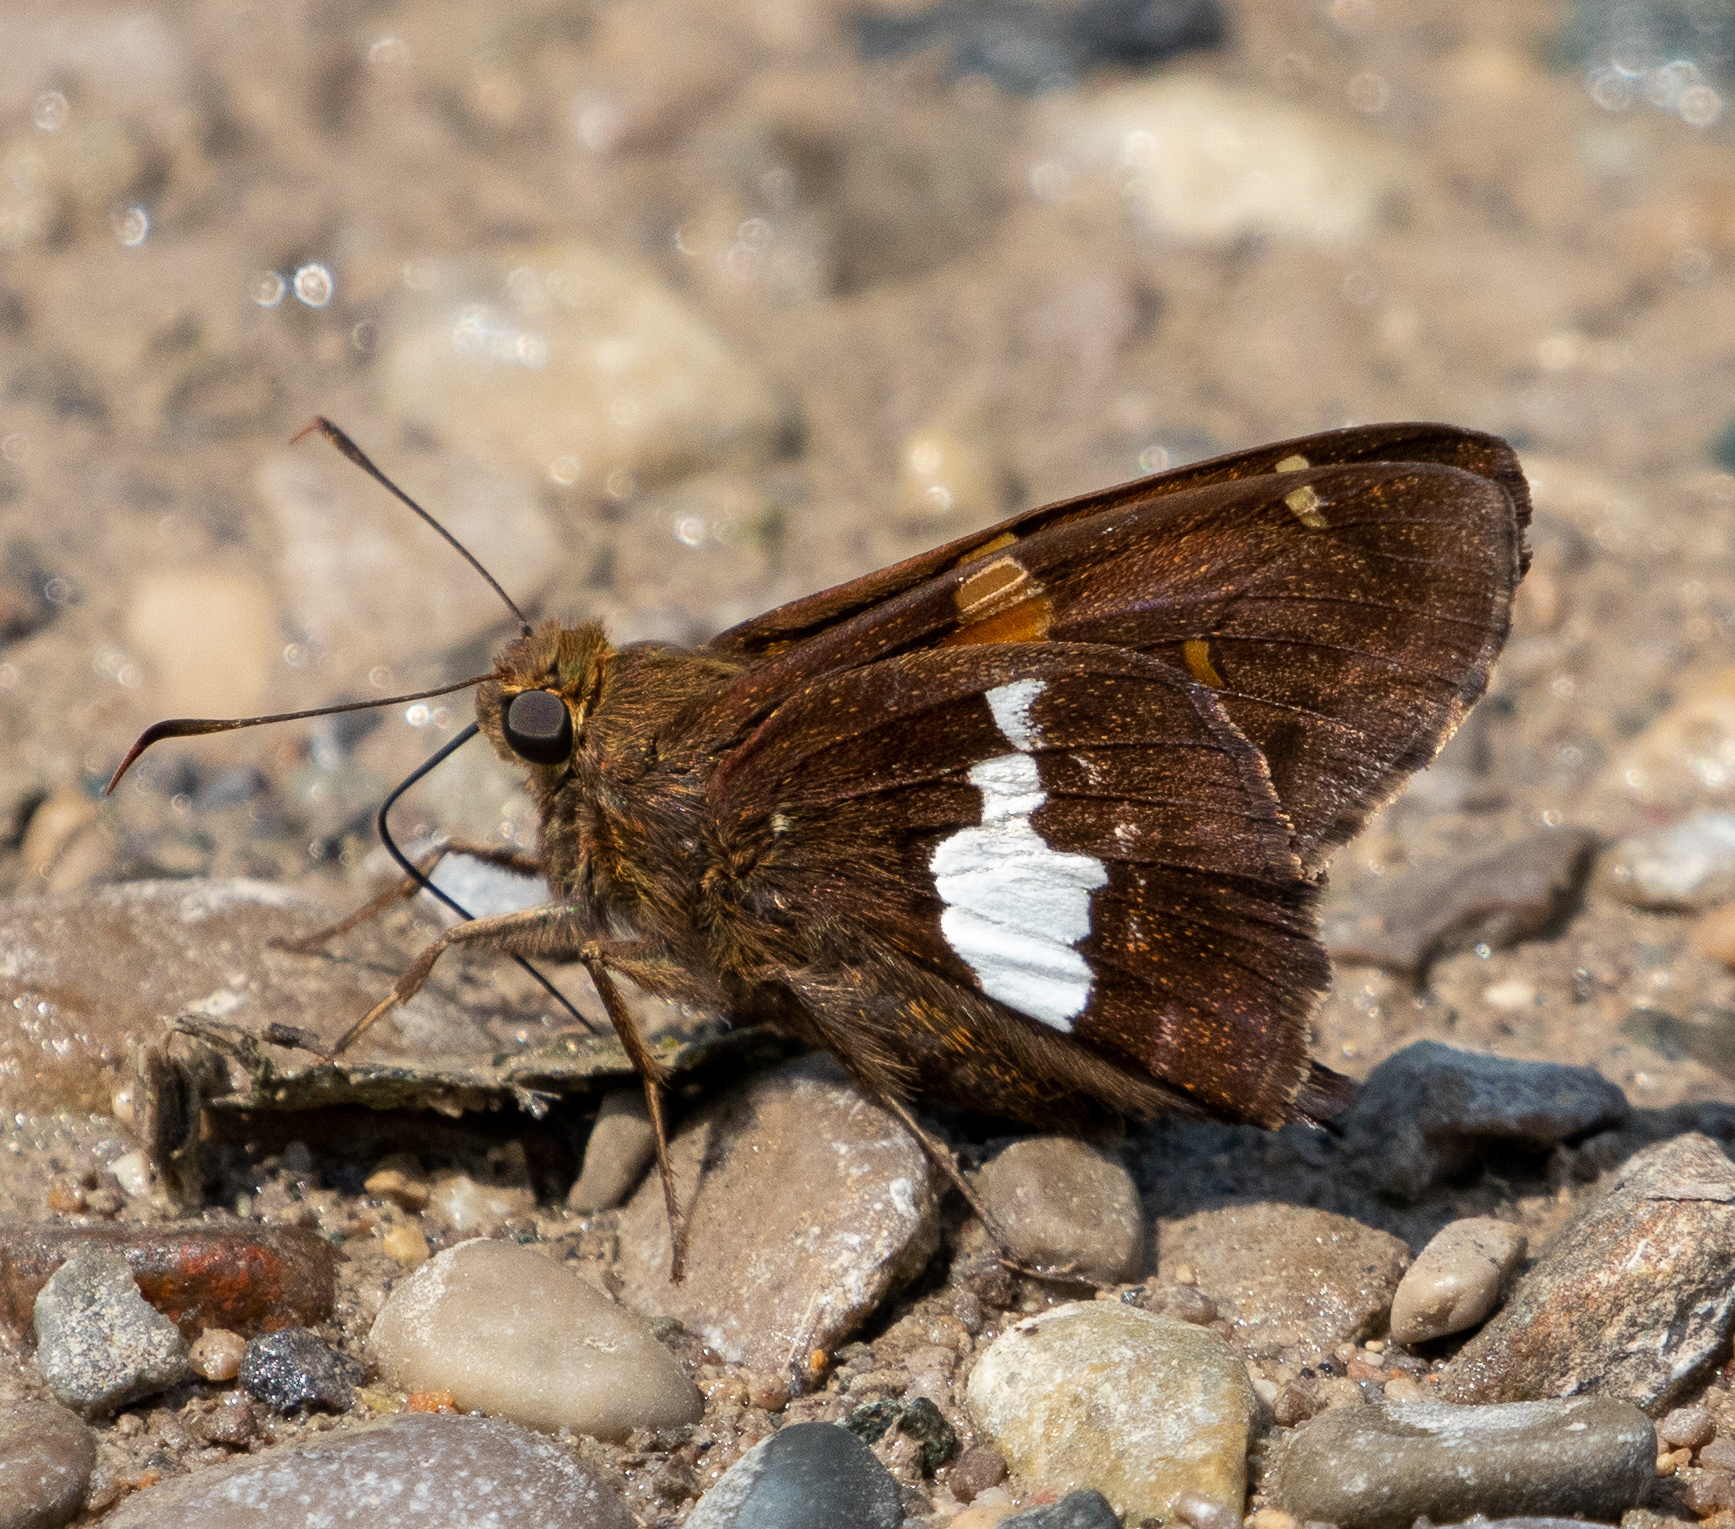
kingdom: Animalia
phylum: Arthropoda
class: Insecta
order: Lepidoptera
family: Hesperiidae
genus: Epargyreus
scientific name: Epargyreus clarus
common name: Silver-spotted skipper
